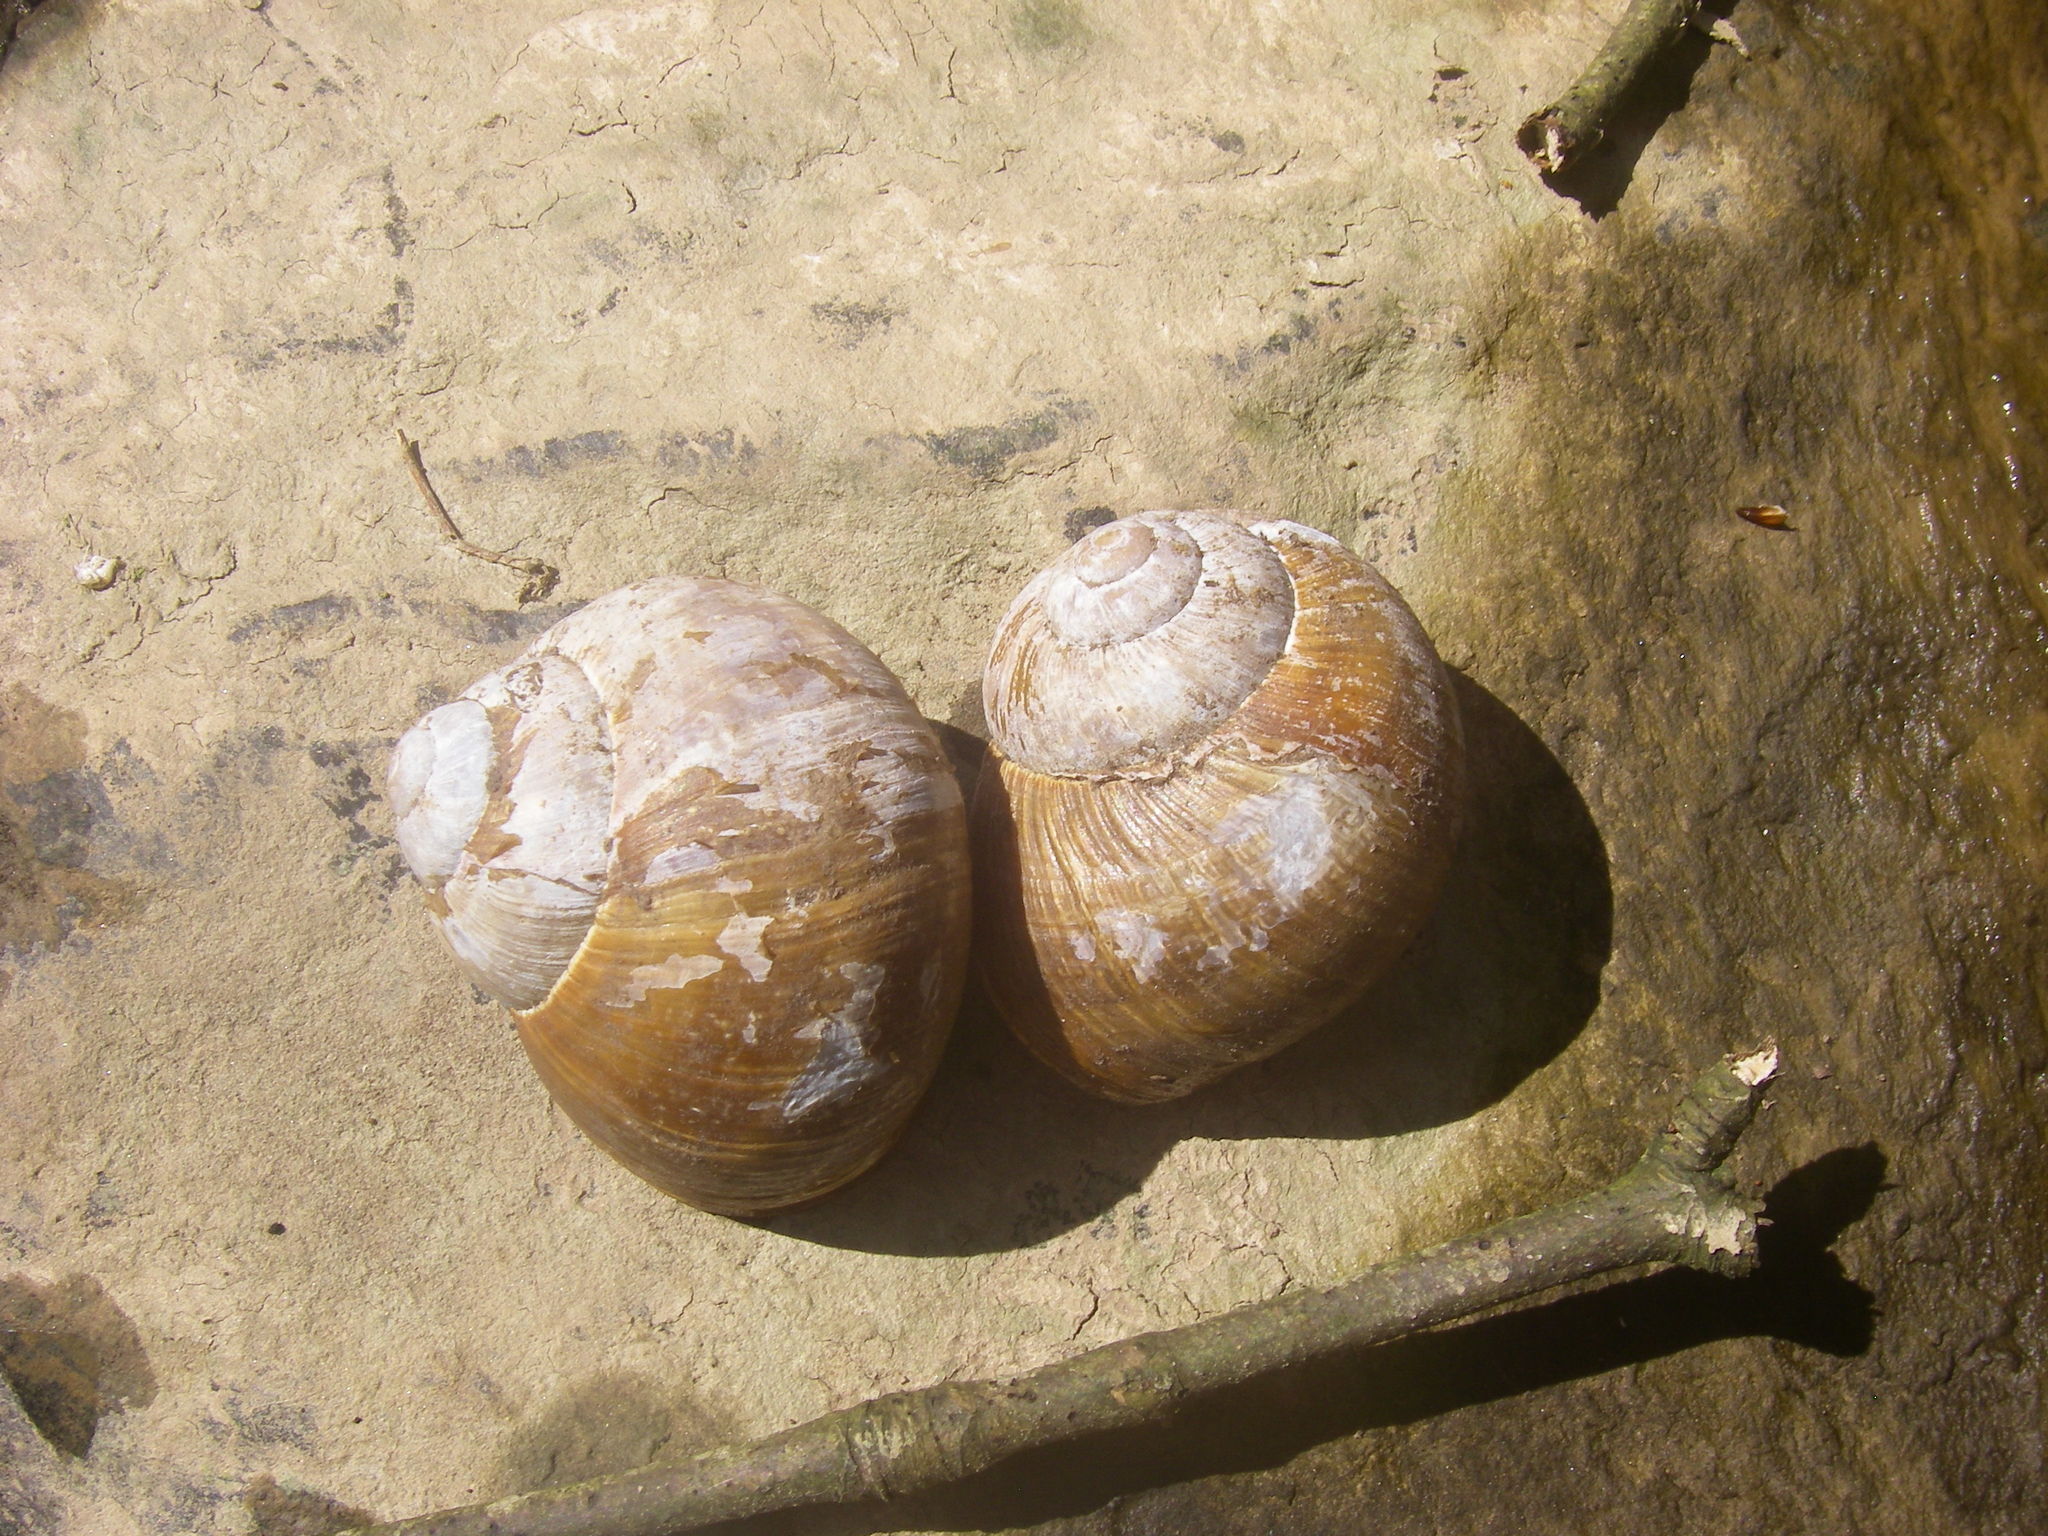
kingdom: Animalia
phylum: Mollusca
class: Gastropoda
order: Stylommatophora
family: Helicidae
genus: Helix
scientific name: Helix pomatia
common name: Roman snail
